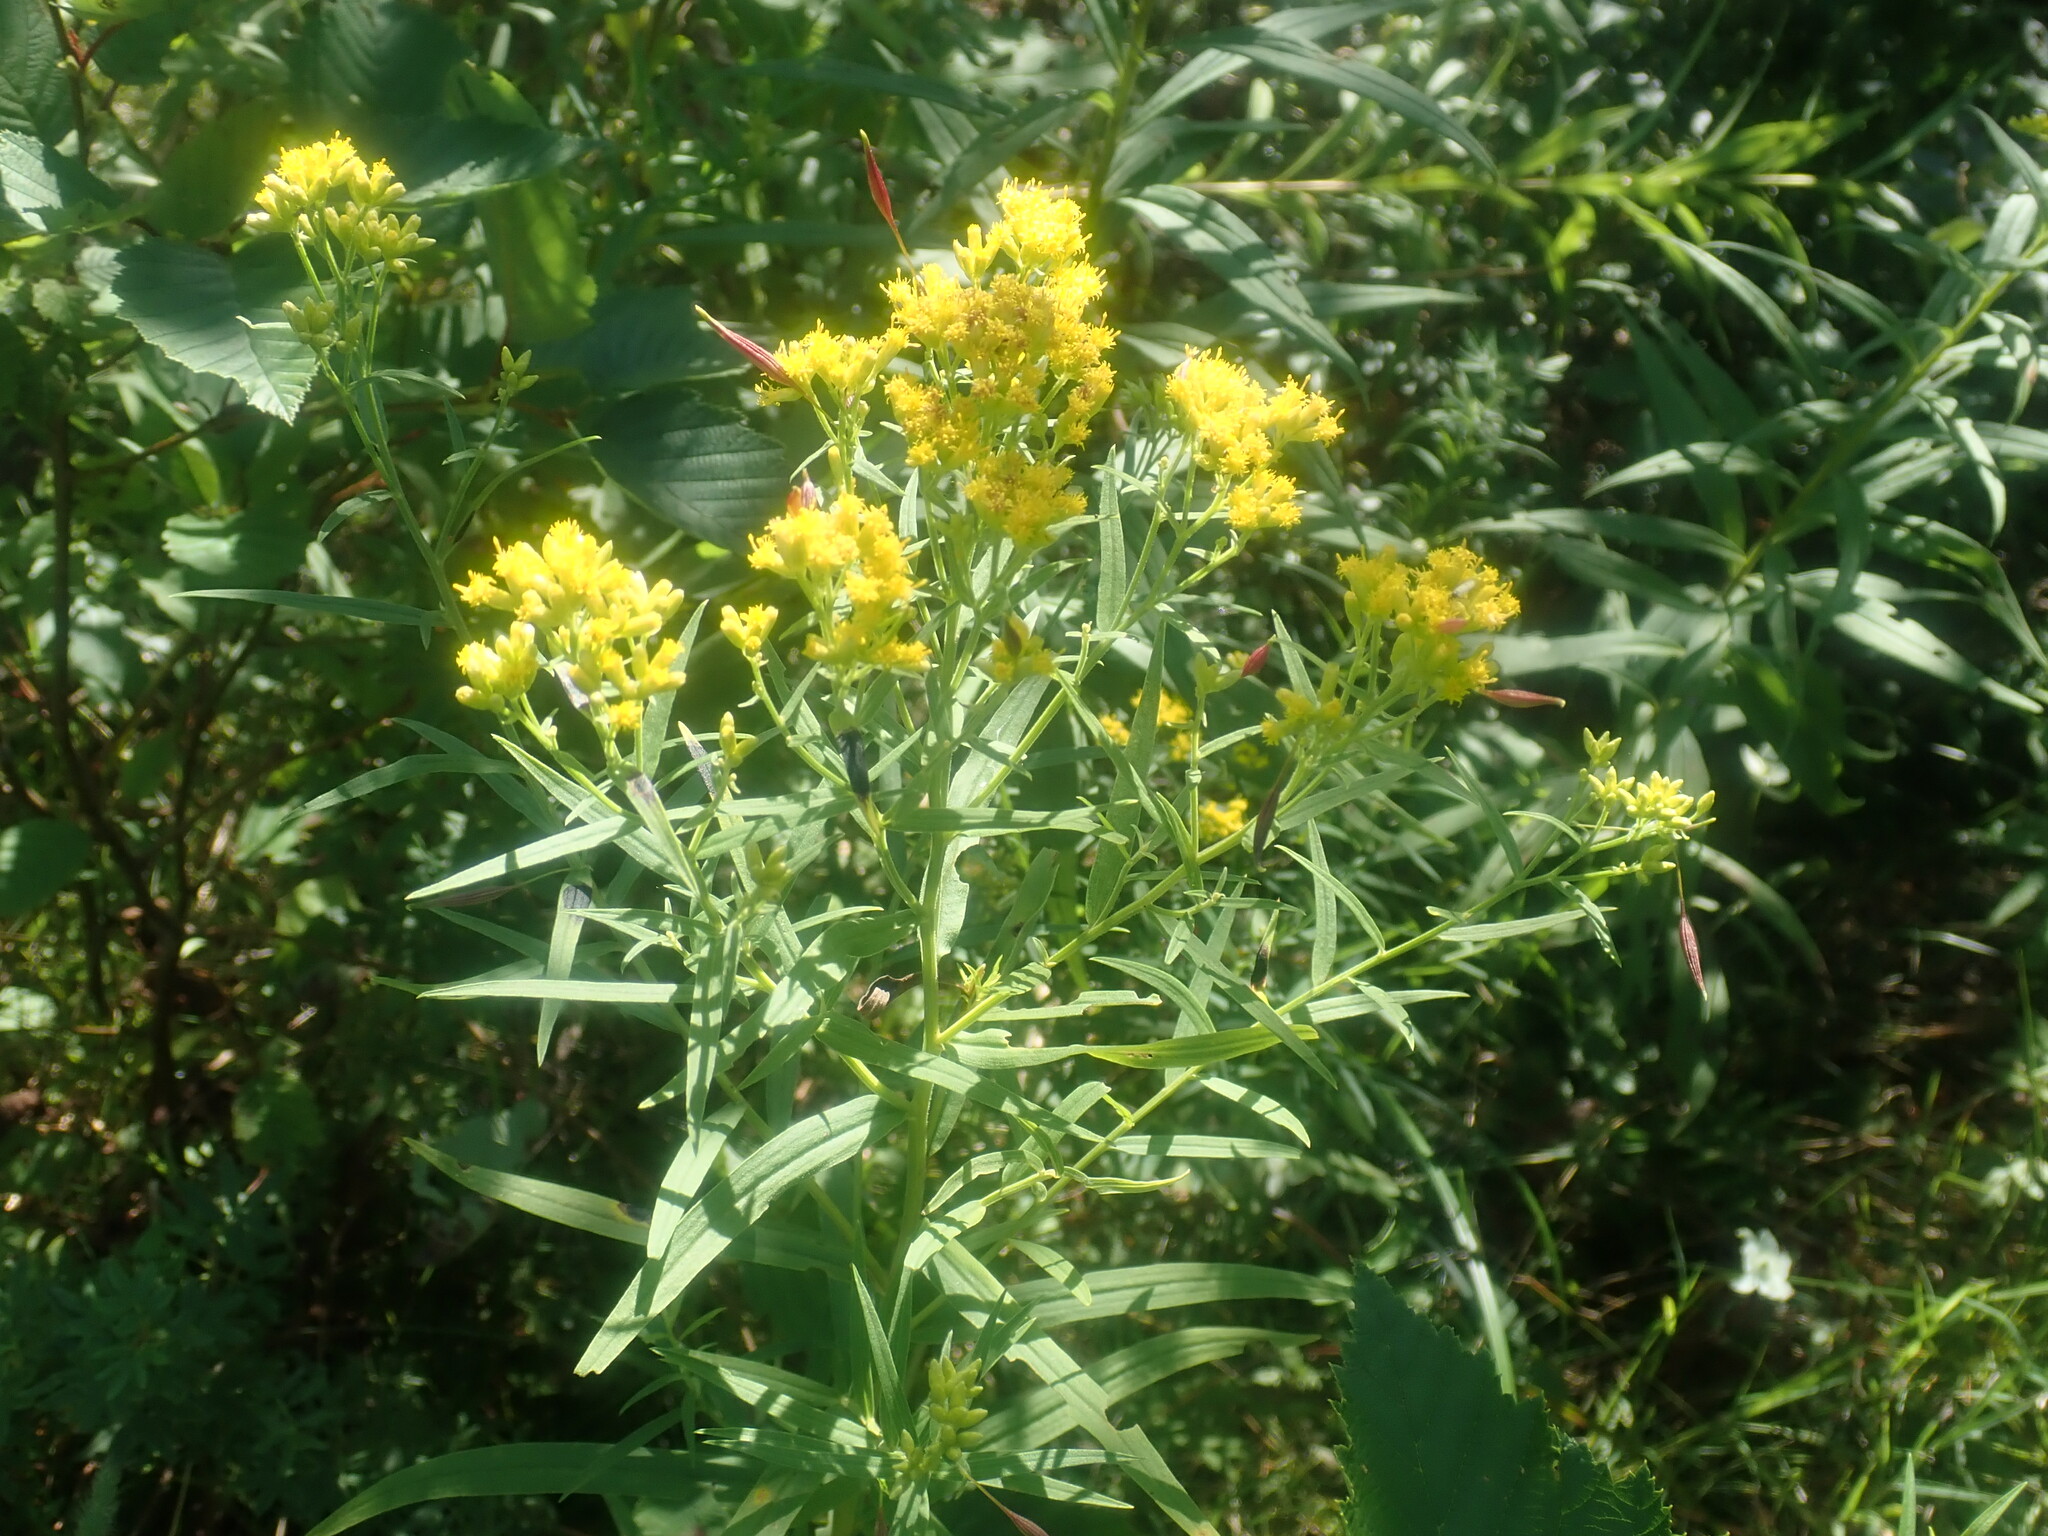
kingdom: Plantae
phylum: Tracheophyta
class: Magnoliopsida
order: Asterales
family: Asteraceae
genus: Euthamia
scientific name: Euthamia graminifolia
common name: Common goldentop
